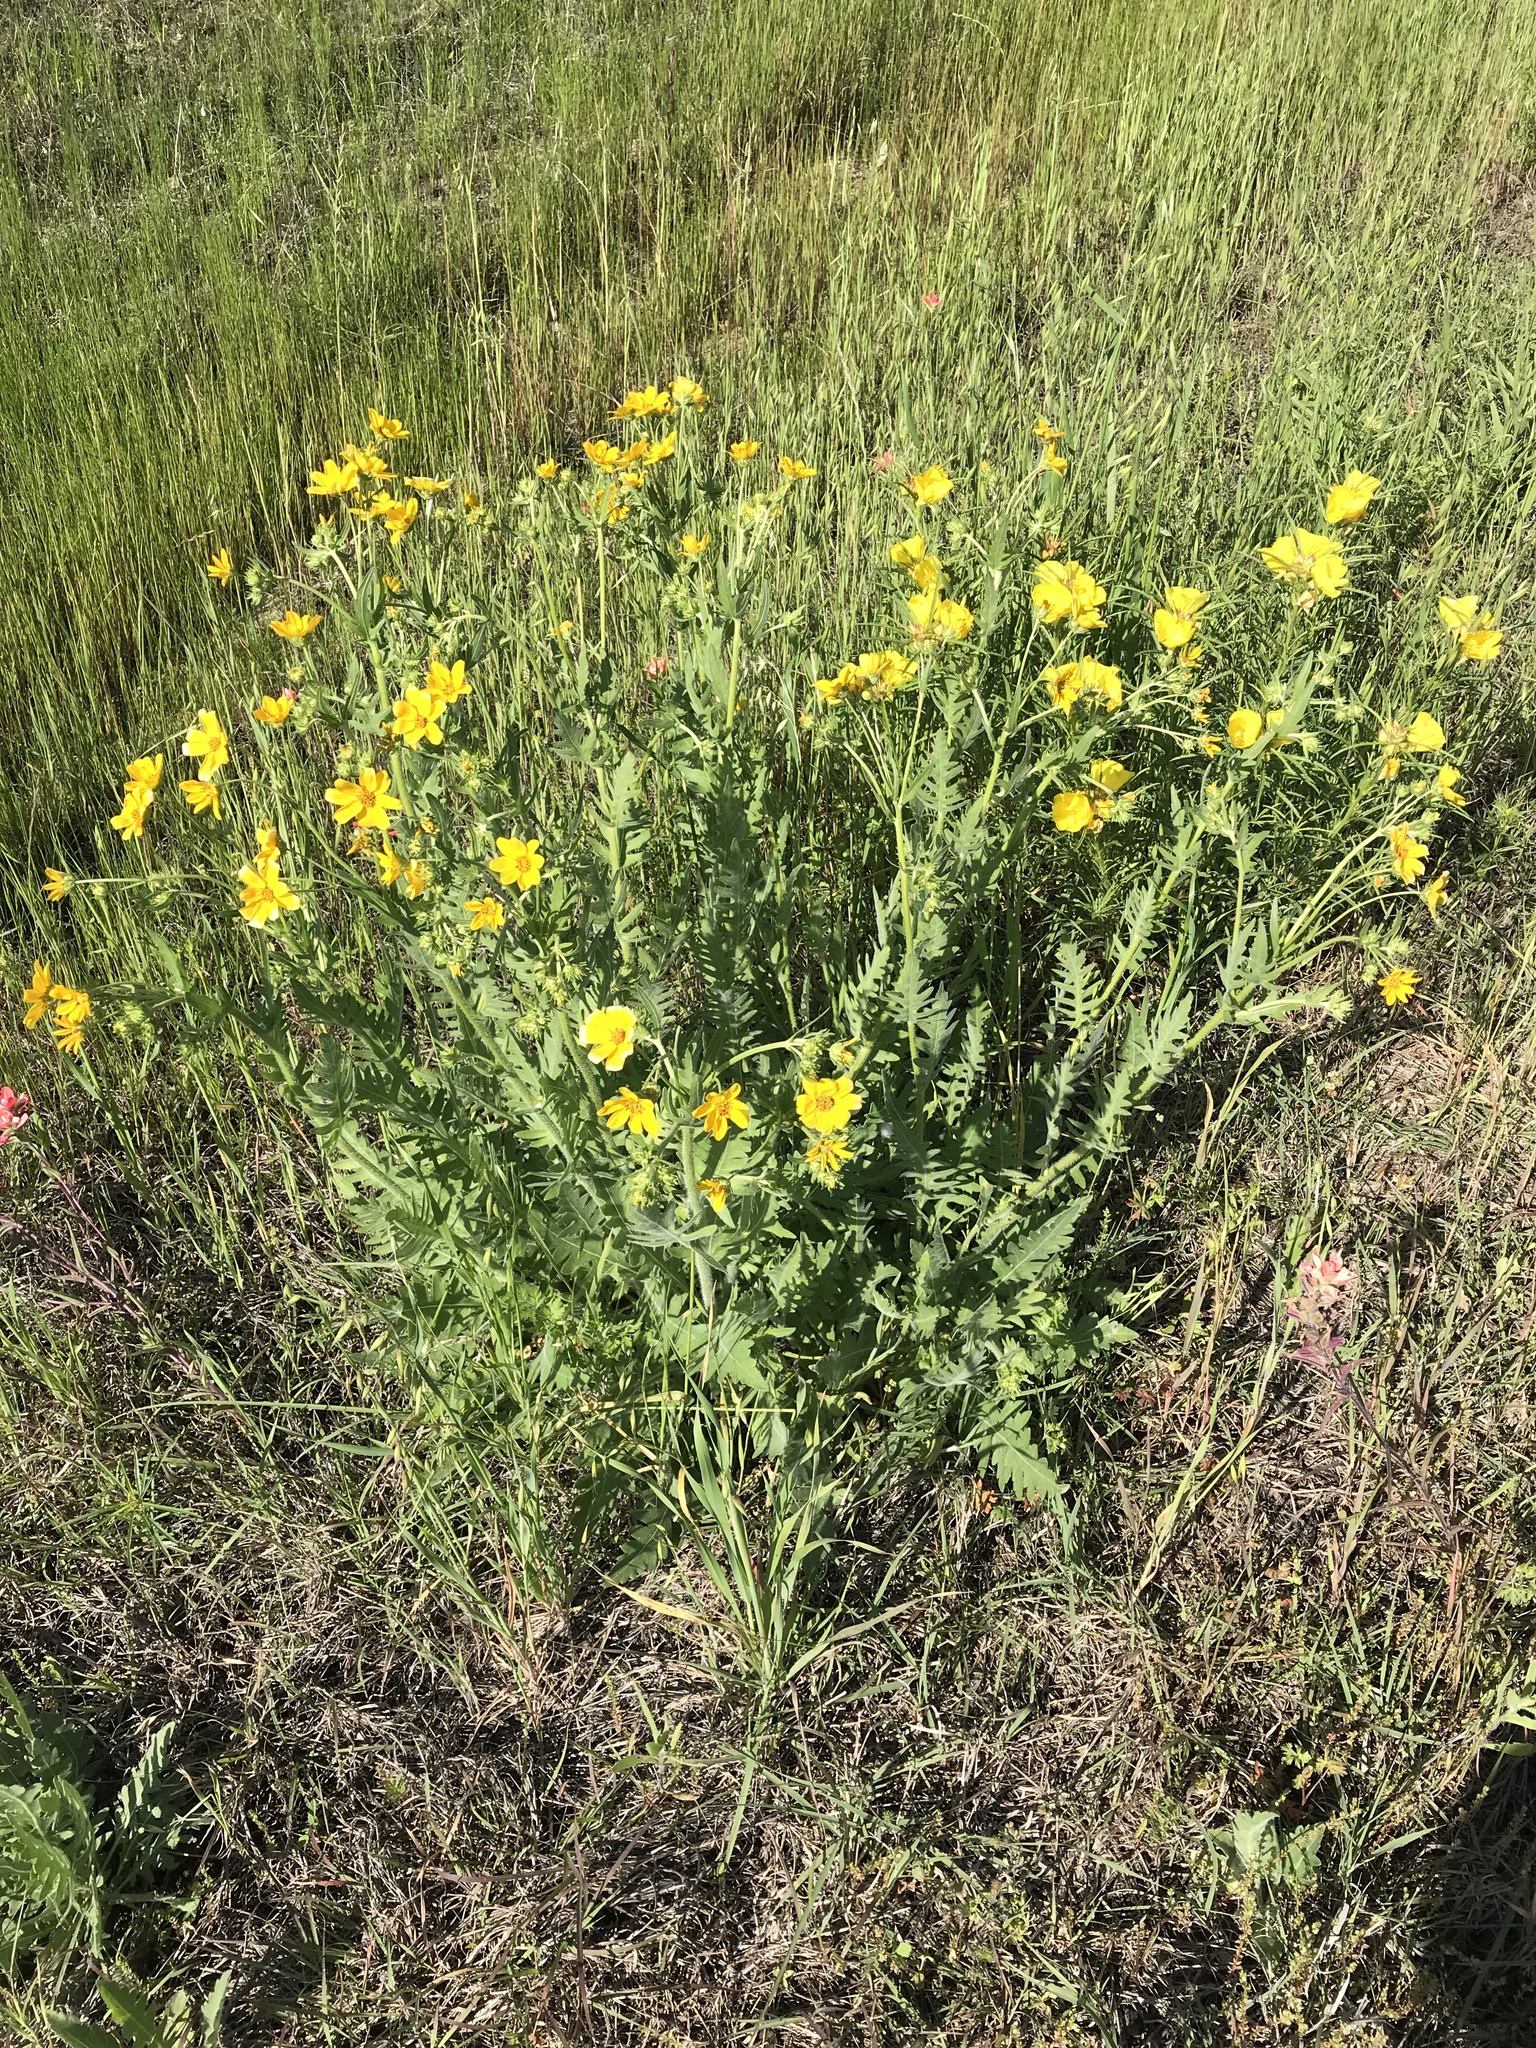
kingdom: Plantae
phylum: Tracheophyta
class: Magnoliopsida
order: Asterales
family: Asteraceae
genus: Engelmannia
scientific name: Engelmannia peristenia
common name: Engelmann's daisy
